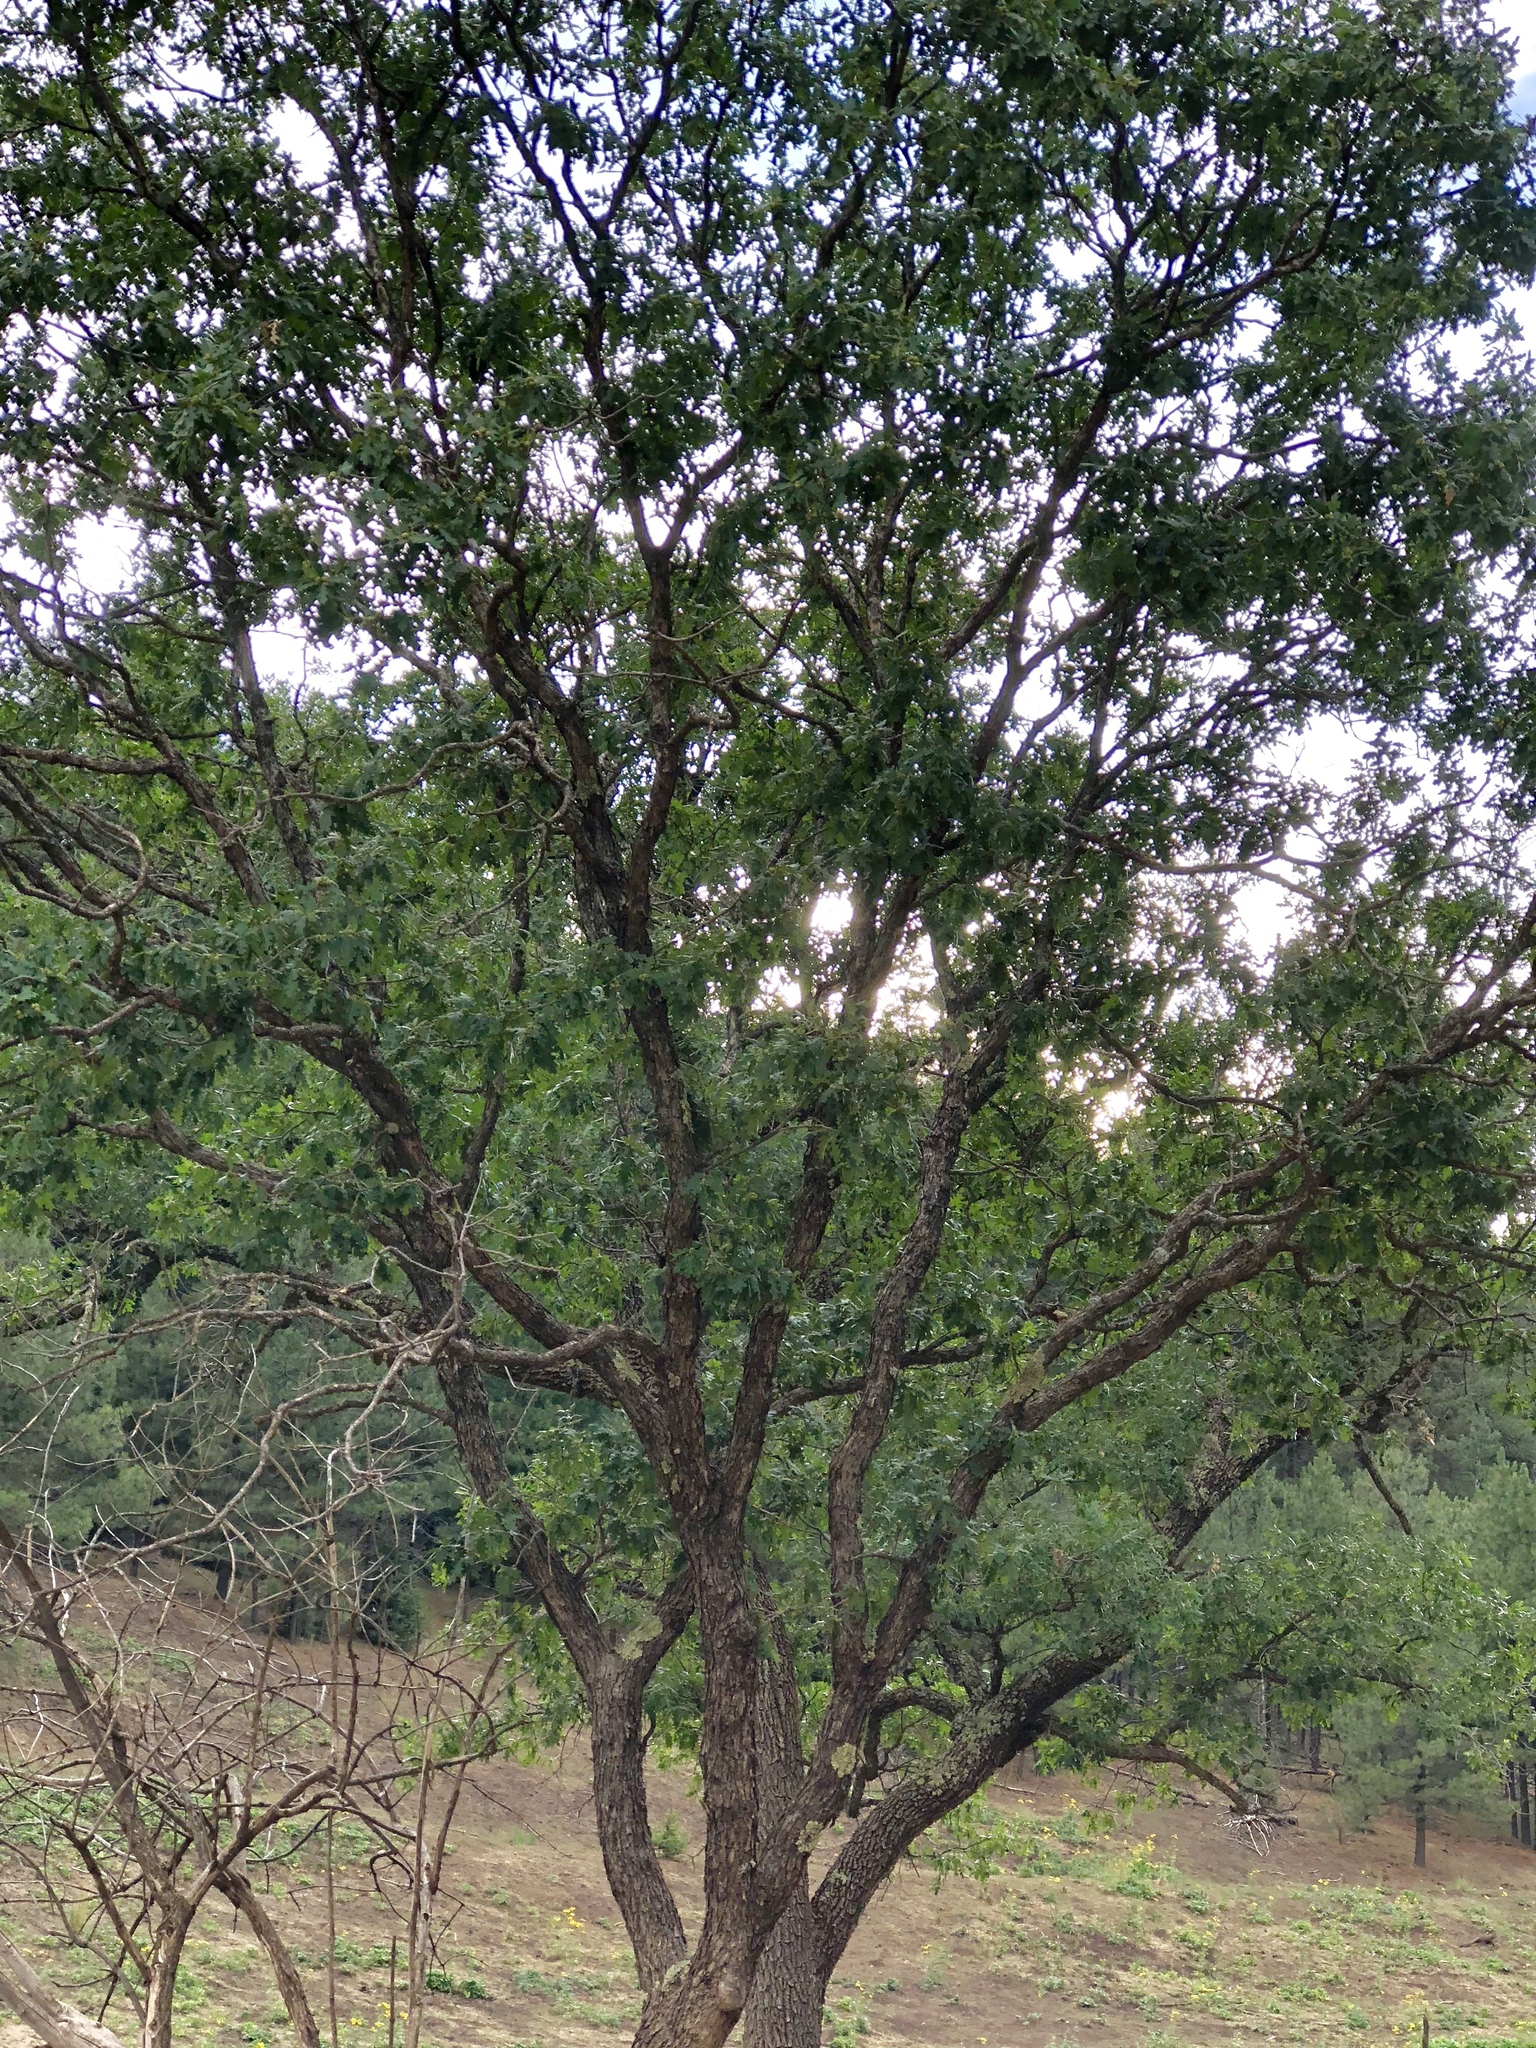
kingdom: Plantae
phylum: Tracheophyta
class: Magnoliopsida
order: Fagales
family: Fagaceae
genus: Quercus
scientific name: Quercus gambelii
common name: Gambel oak
